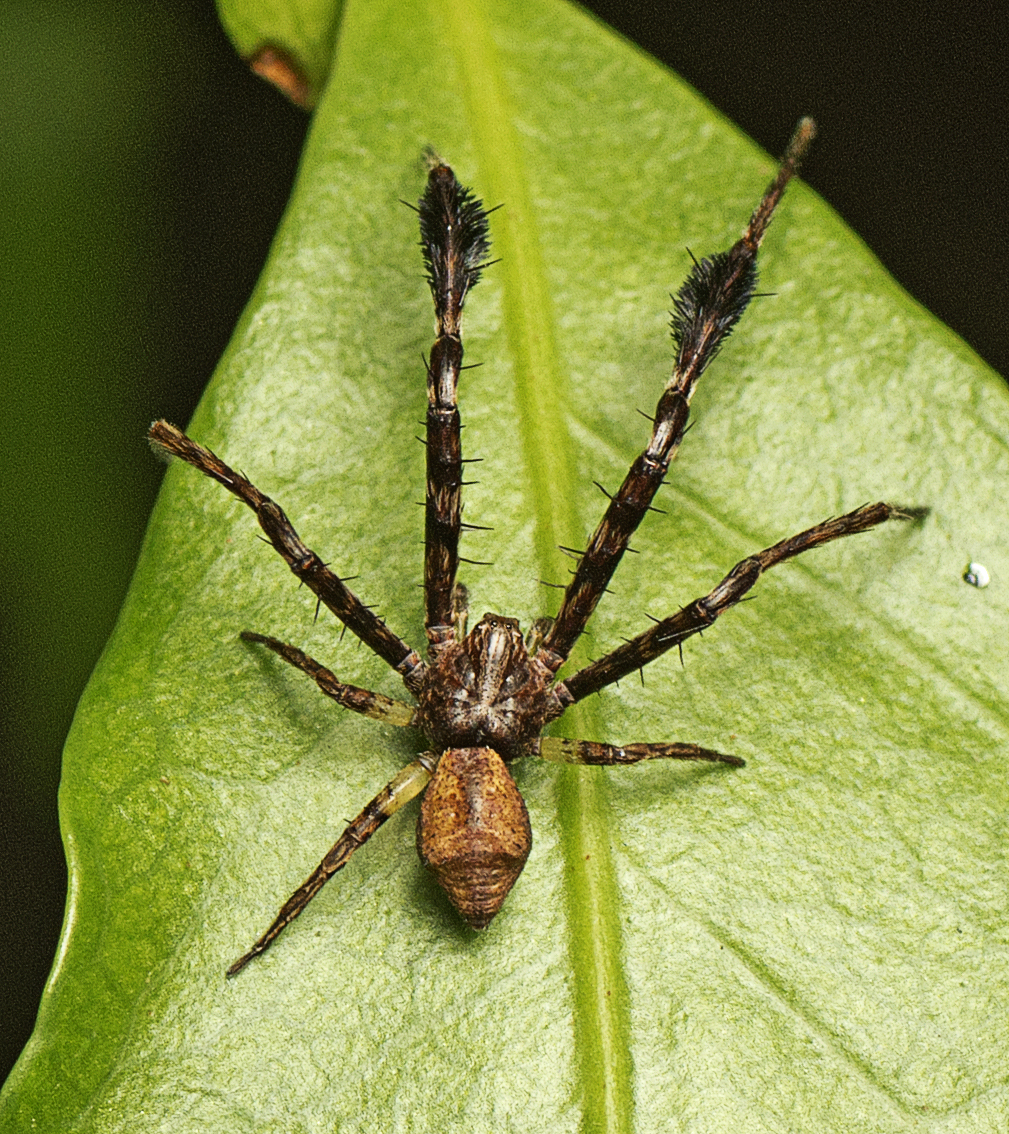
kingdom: Animalia
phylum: Arthropoda
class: Arachnida
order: Araneae
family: Thomisidae
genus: Stephanopis
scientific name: Stephanopis barbipes
